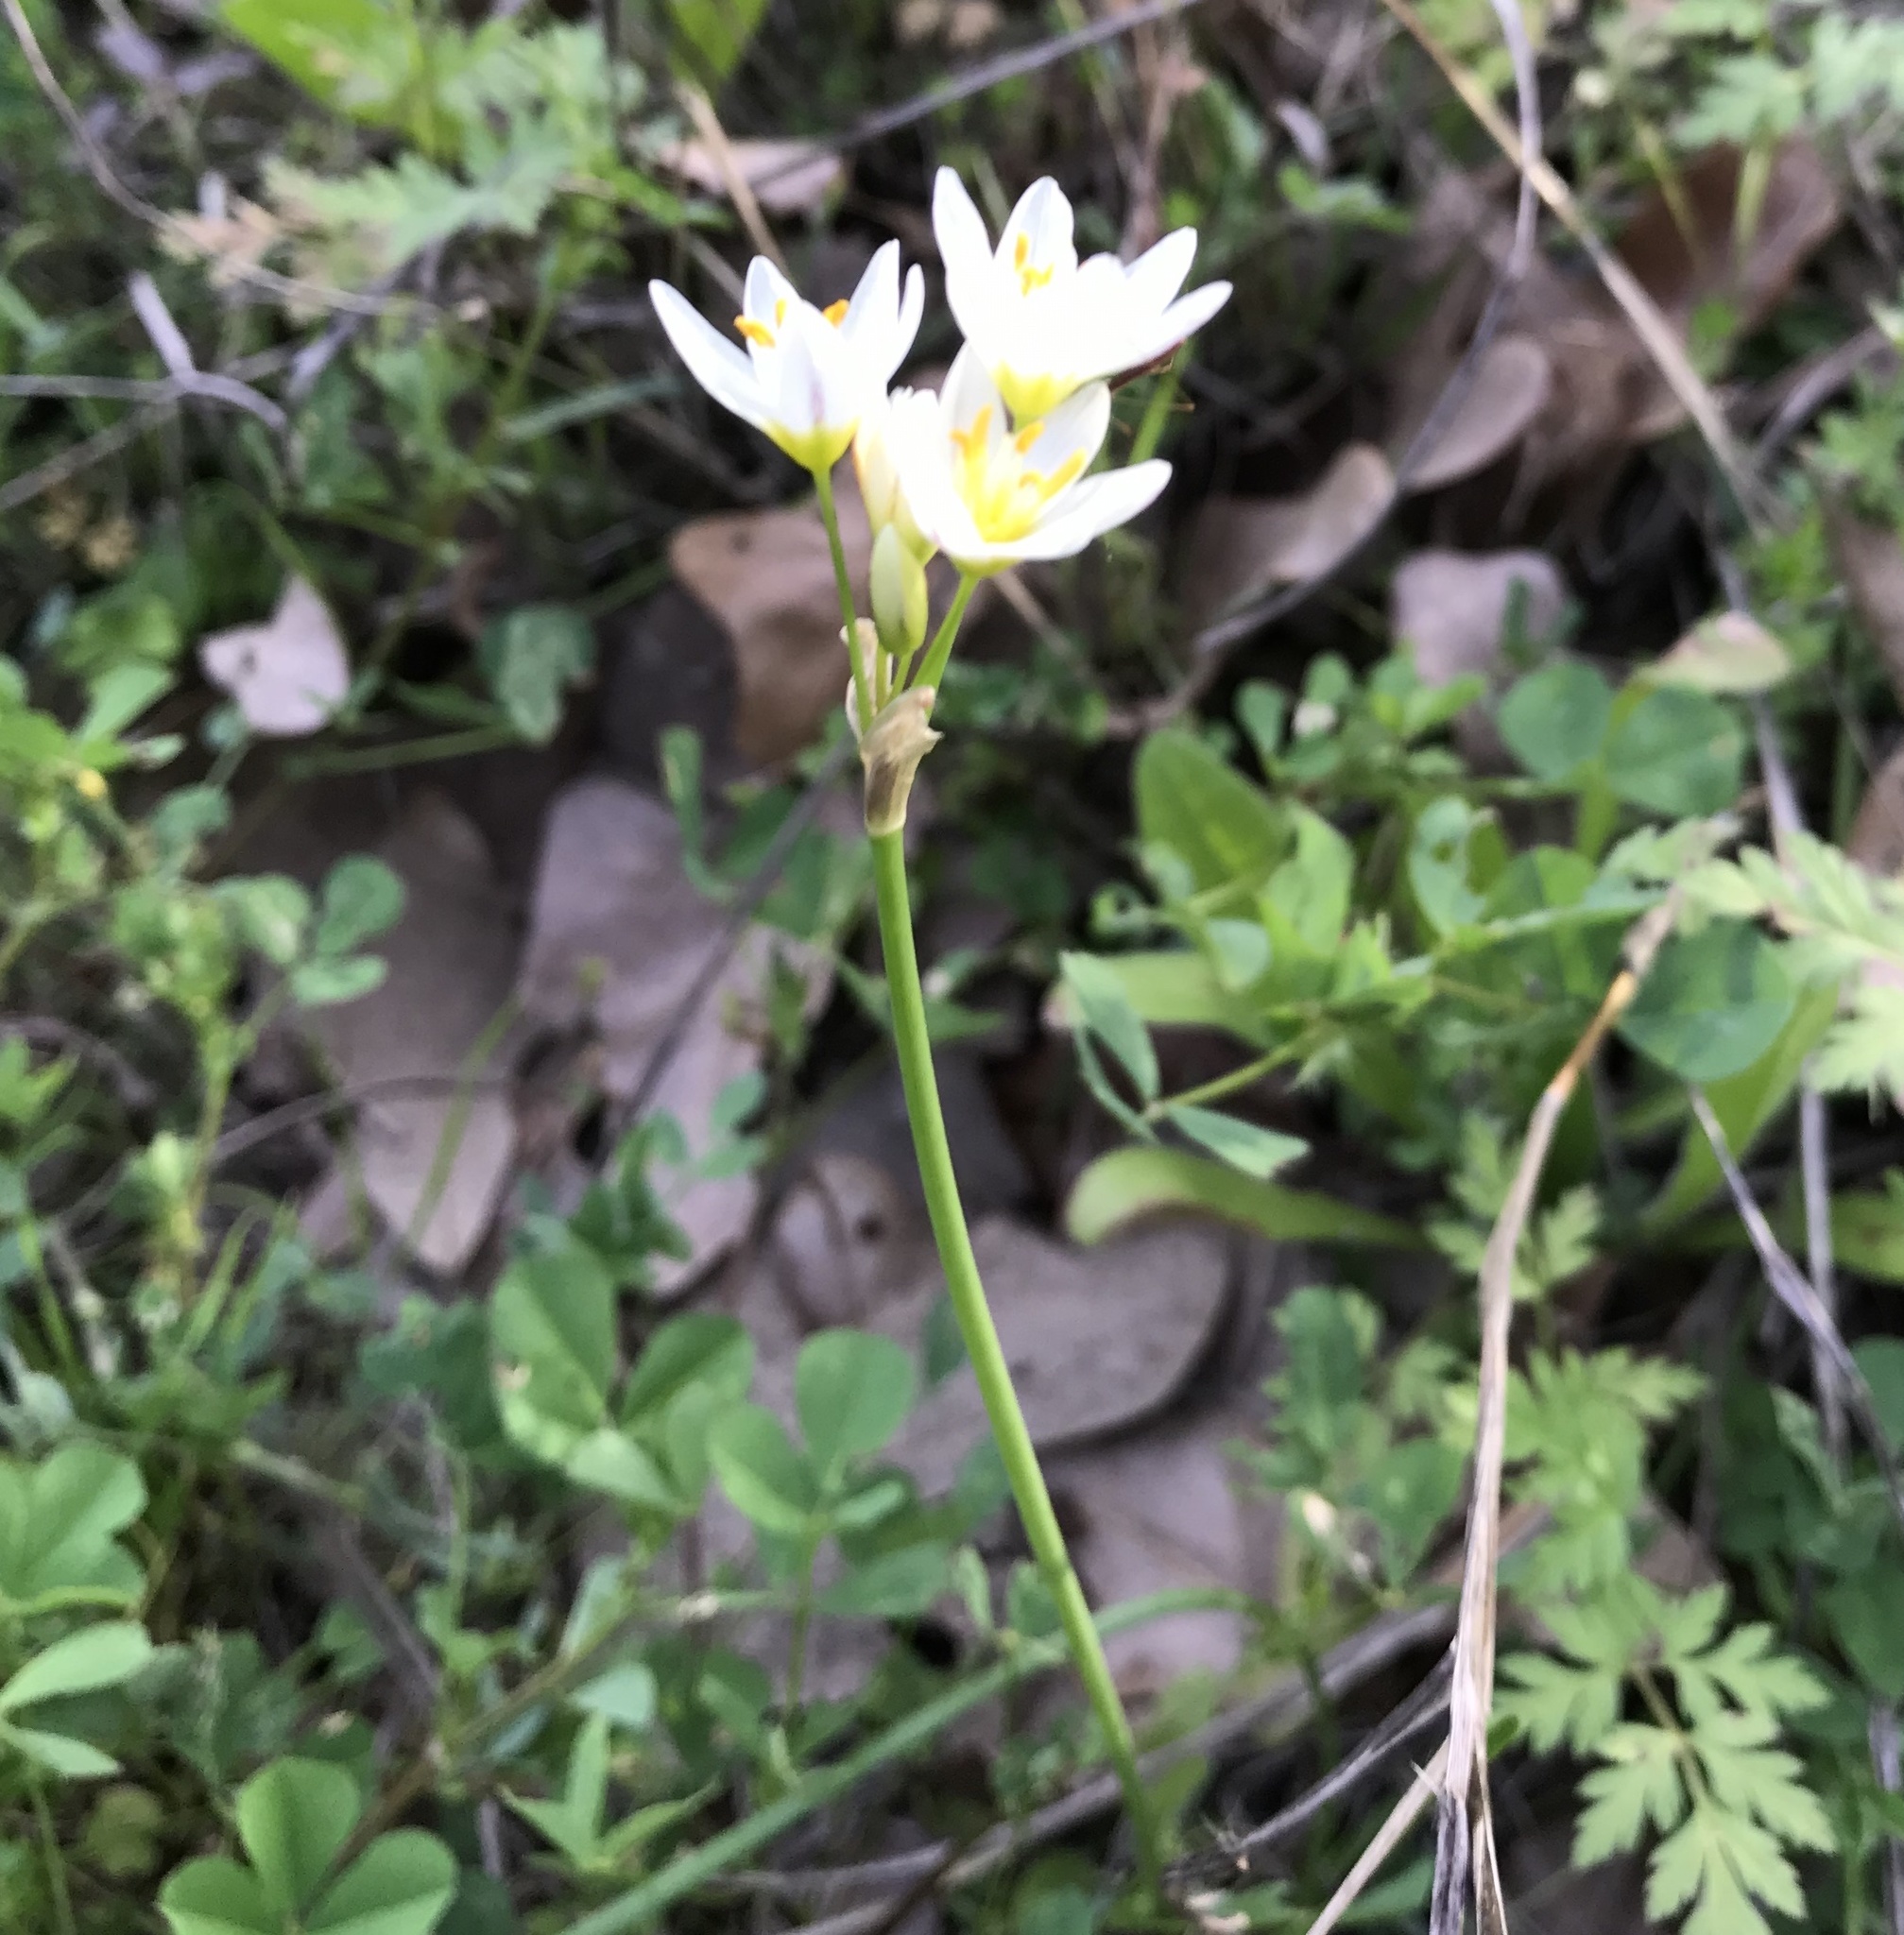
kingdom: Plantae
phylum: Tracheophyta
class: Liliopsida
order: Asparagales
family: Amaryllidaceae
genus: Nothoscordum
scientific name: Nothoscordum bivalve
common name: Crow-poison
